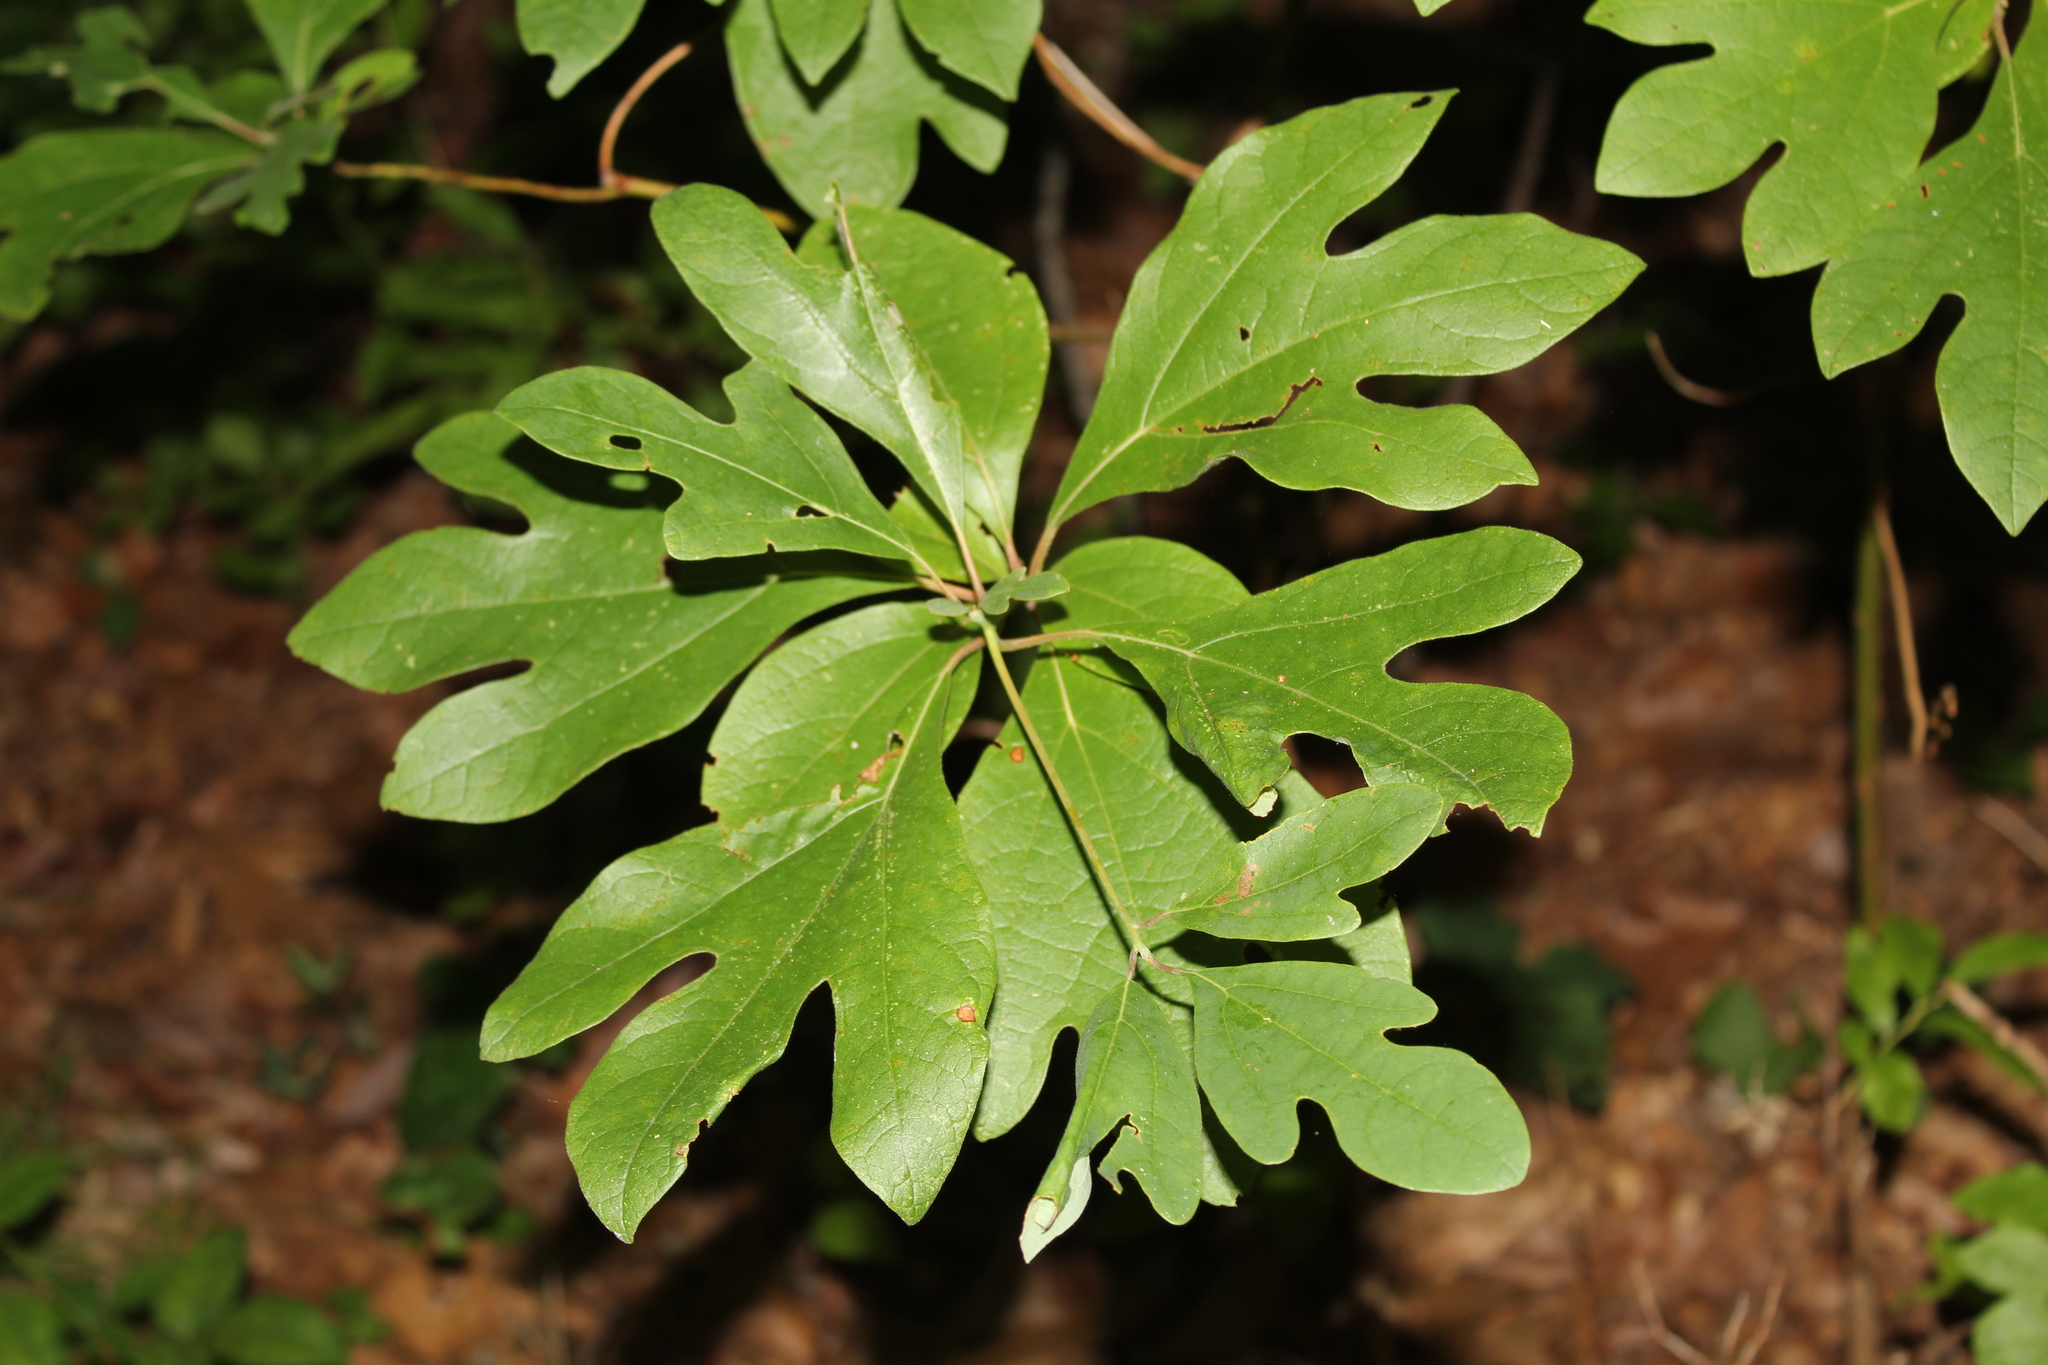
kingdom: Plantae
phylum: Tracheophyta
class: Magnoliopsida
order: Laurales
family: Lauraceae
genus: Sassafras
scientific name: Sassafras albidum
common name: Sassafras
